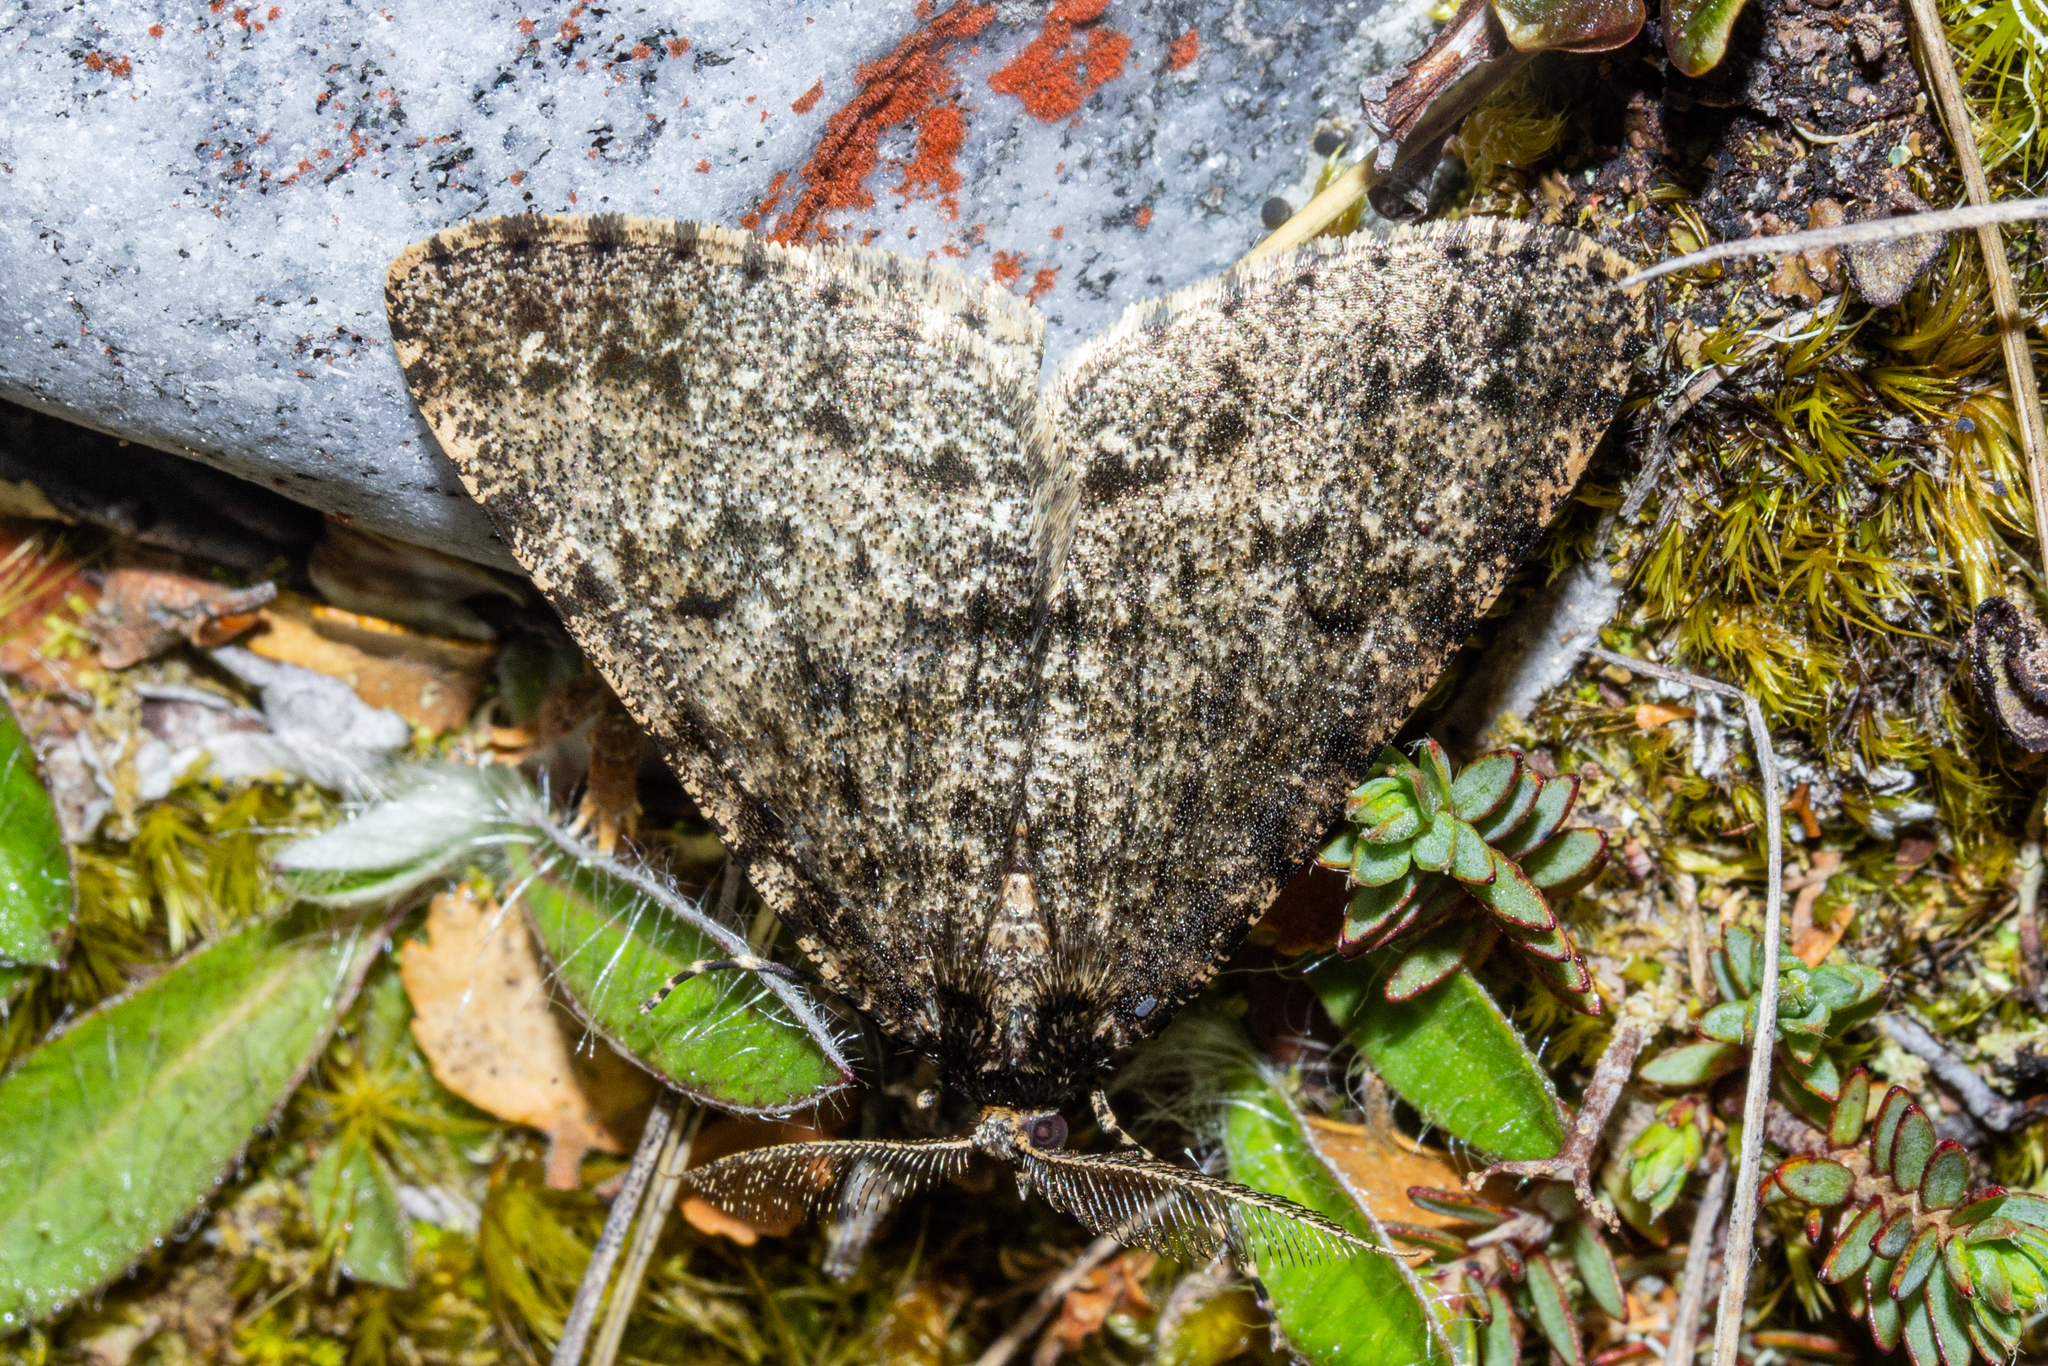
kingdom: Animalia
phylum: Arthropoda
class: Insecta
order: Lepidoptera
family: Geometridae
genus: Pseudocoremia
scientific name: Pseudocoremia terrena
